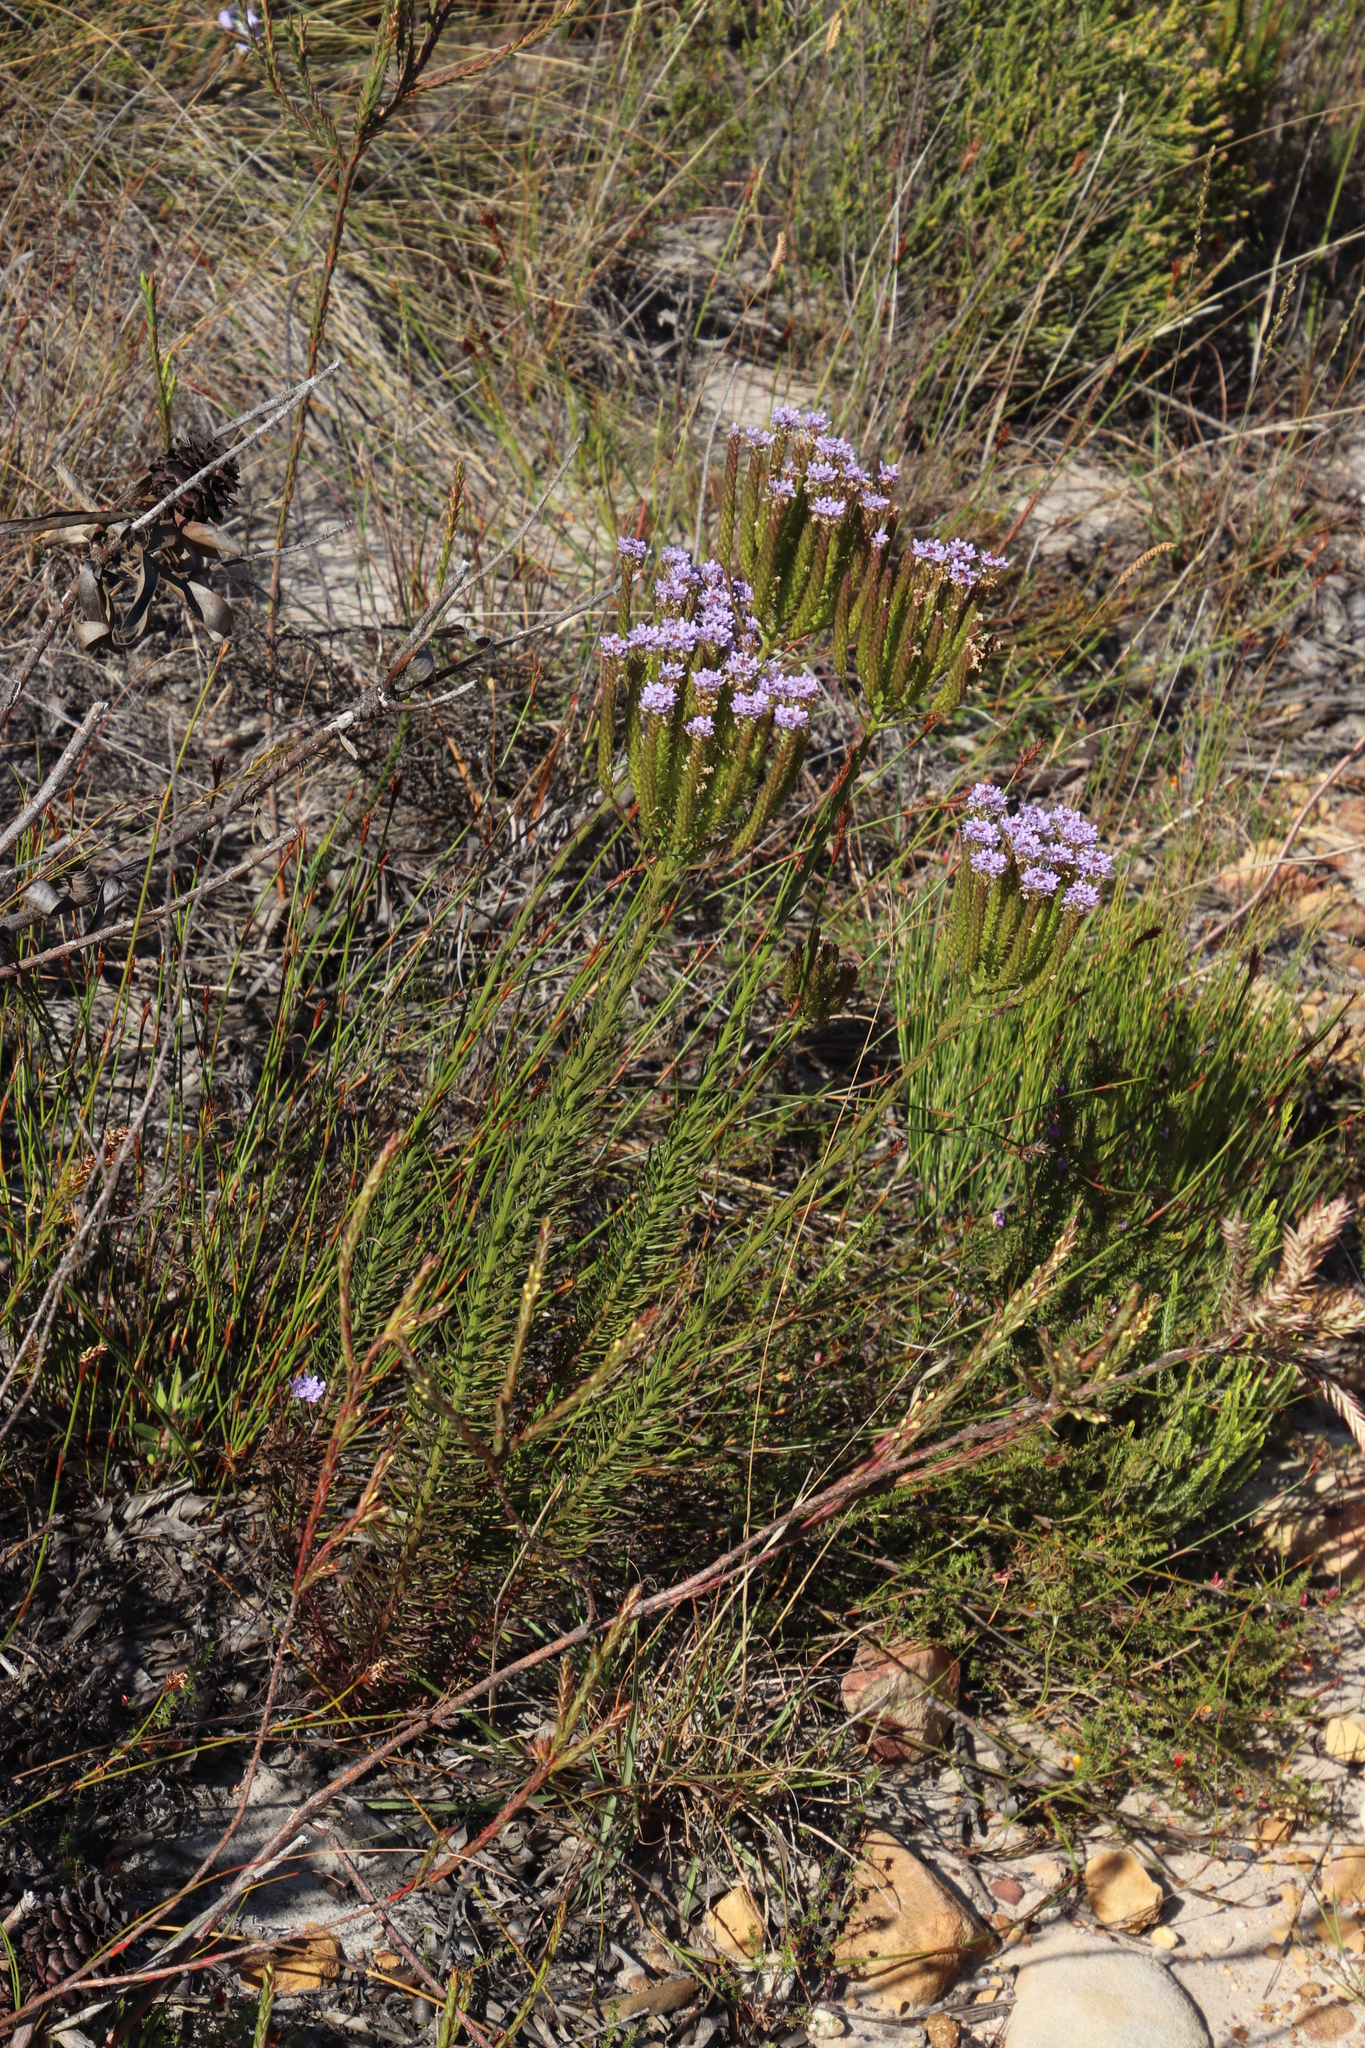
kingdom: Plantae
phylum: Tracheophyta
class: Magnoliopsida
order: Lamiales
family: Scrophulariaceae
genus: Pseudoselago
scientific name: Pseudoselago spuria
